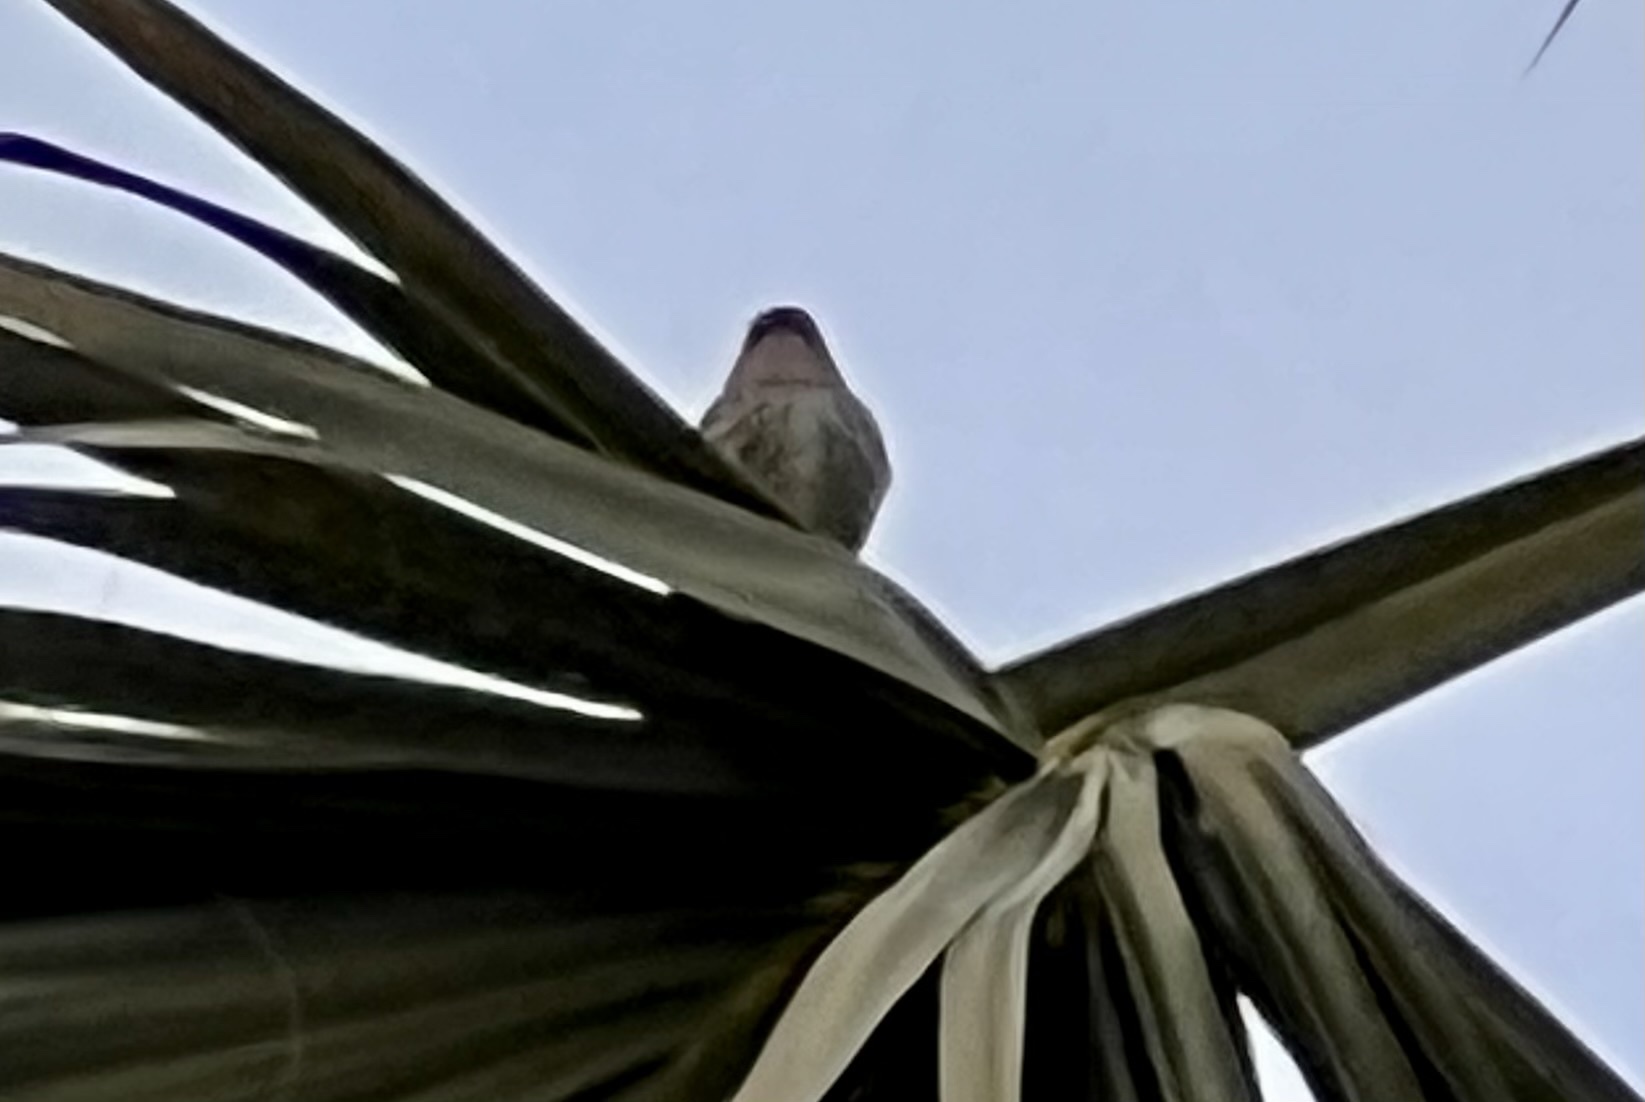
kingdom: Animalia
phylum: Chordata
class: Aves
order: Passeriformes
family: Parulidae
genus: Setophaga
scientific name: Setophaga coronata
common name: Myrtle warbler
